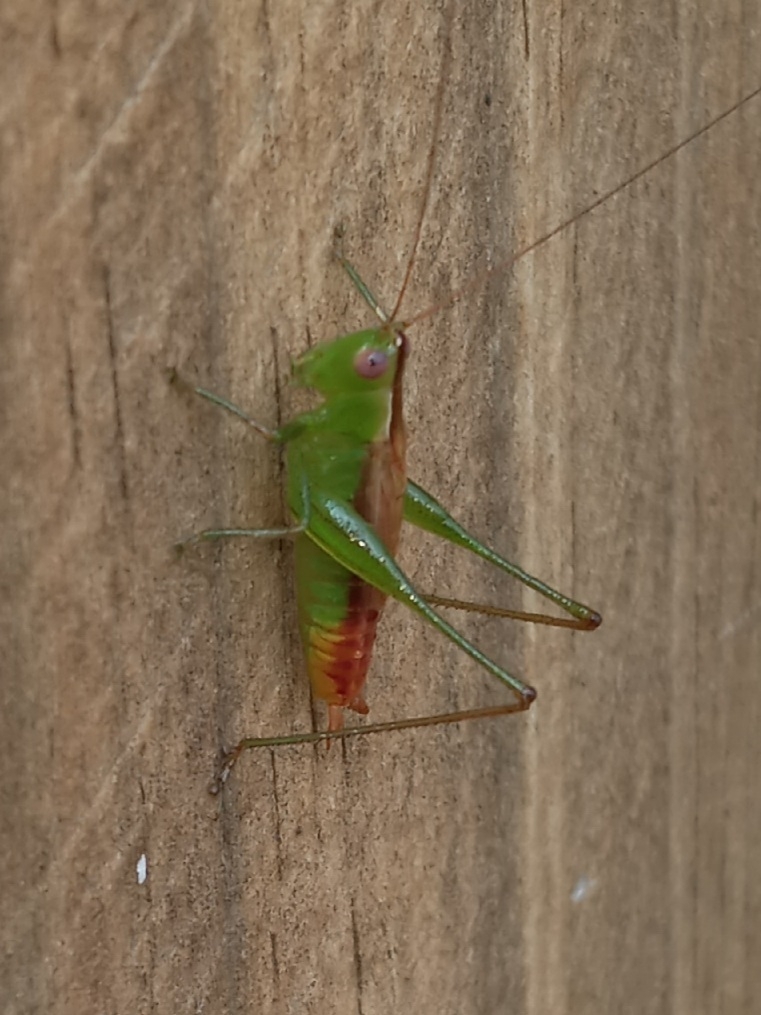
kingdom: Animalia
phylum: Arthropoda
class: Insecta
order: Orthoptera
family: Tettigoniidae
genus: Conocephalus
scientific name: Conocephalus brevipennis
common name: Short-winged meadow katydid
